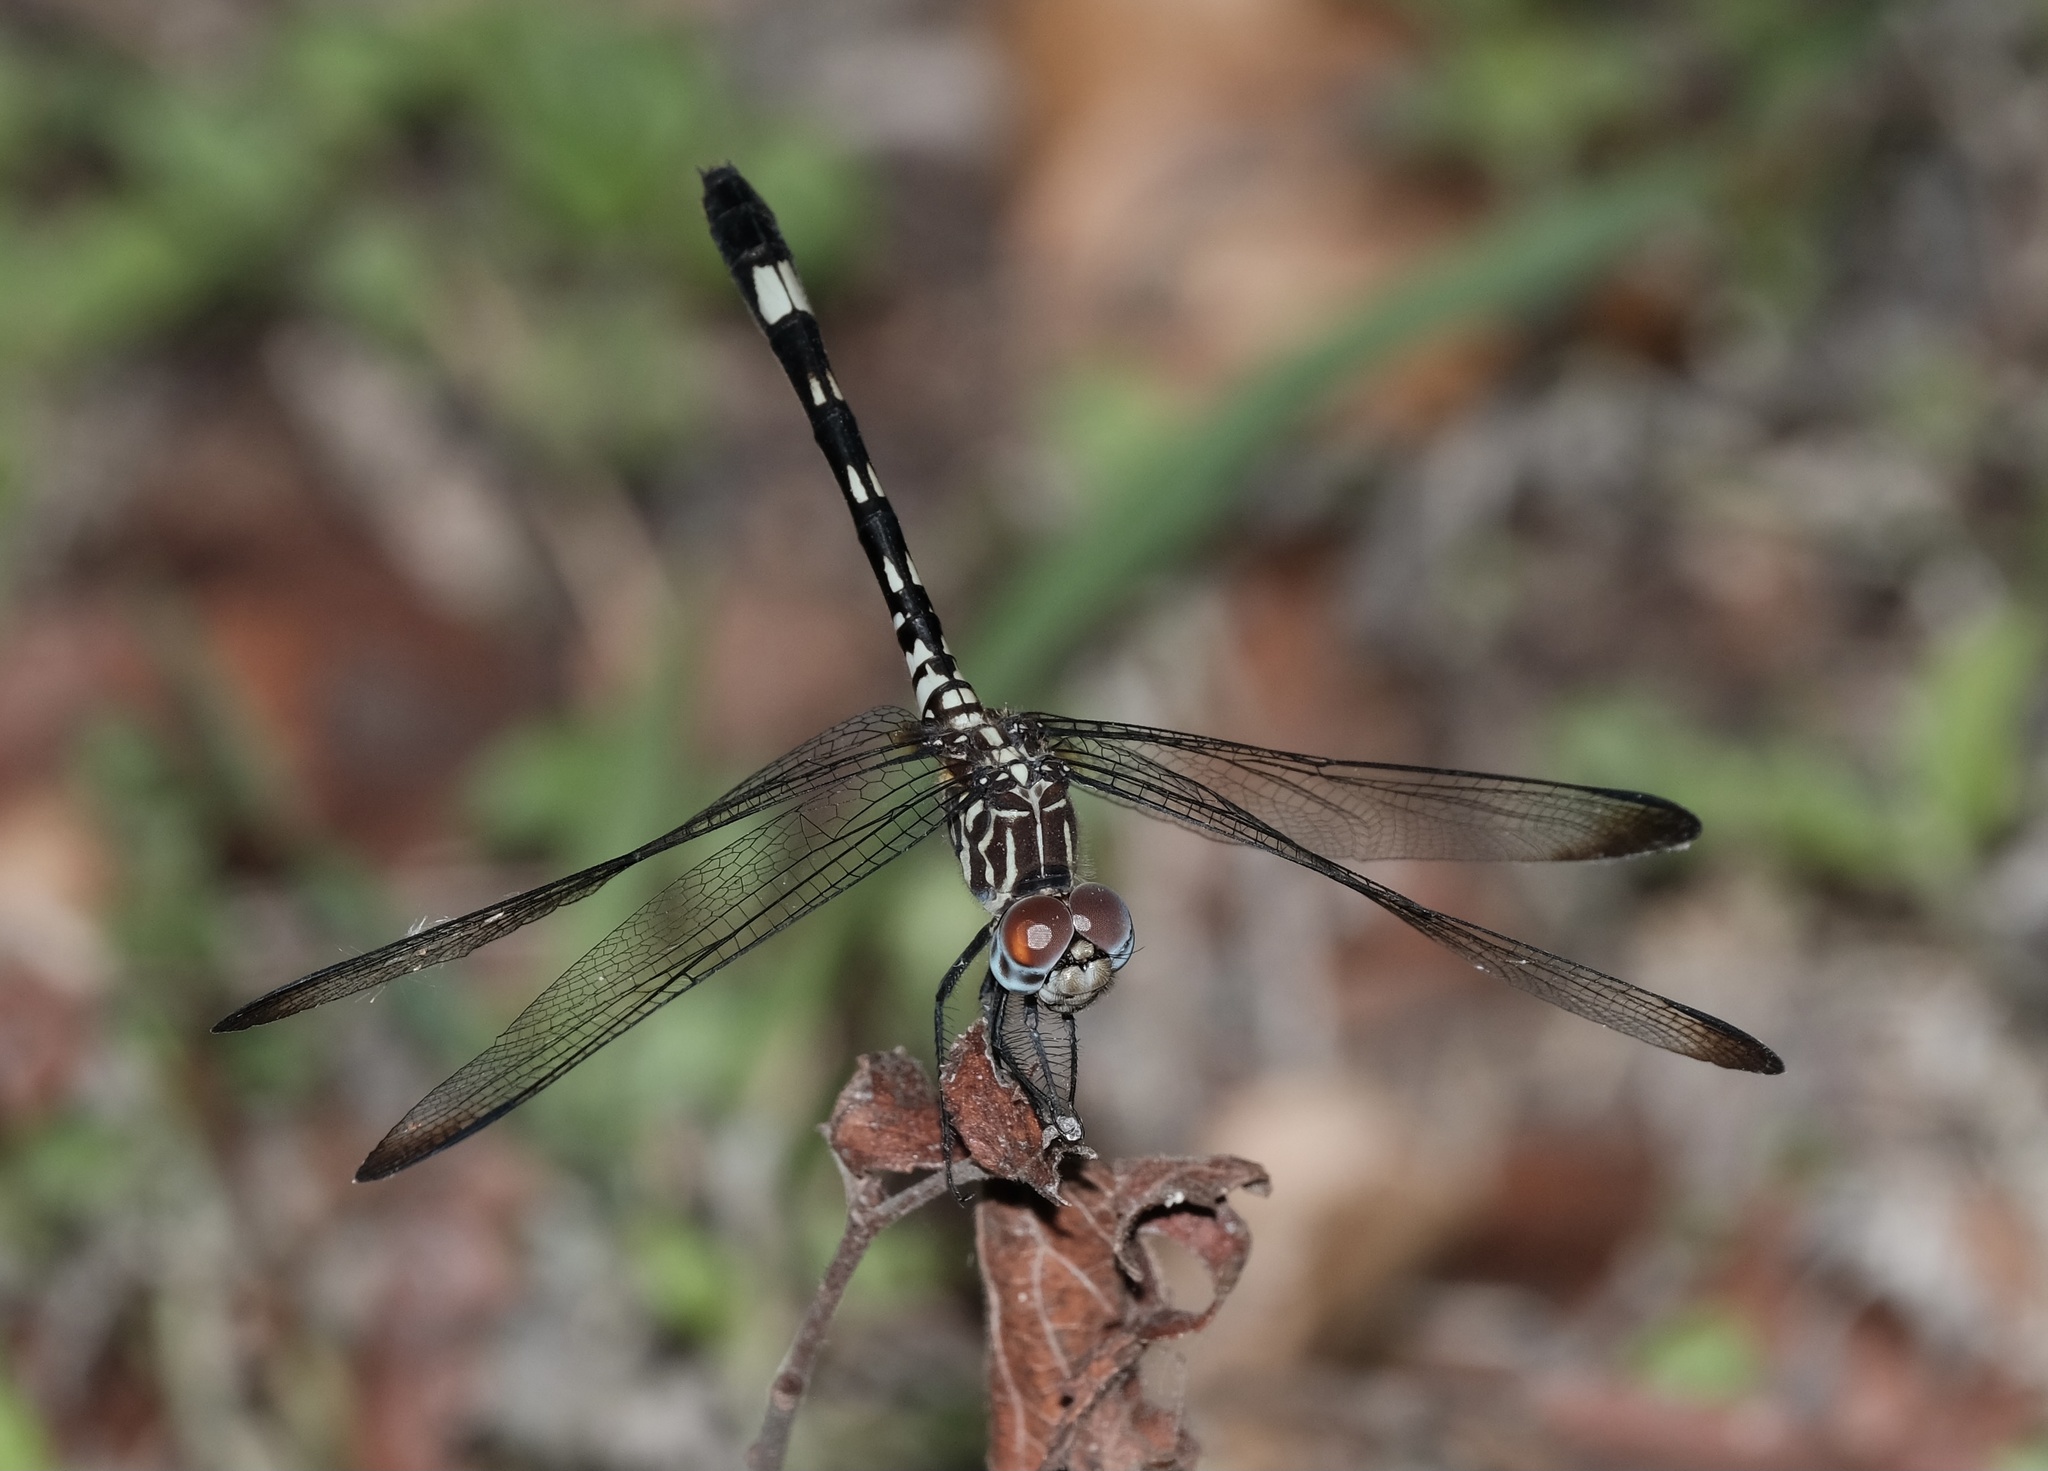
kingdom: Animalia
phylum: Arthropoda
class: Insecta
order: Odonata
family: Libellulidae
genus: Dythemis
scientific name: Dythemis velox
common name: Swift setwing
